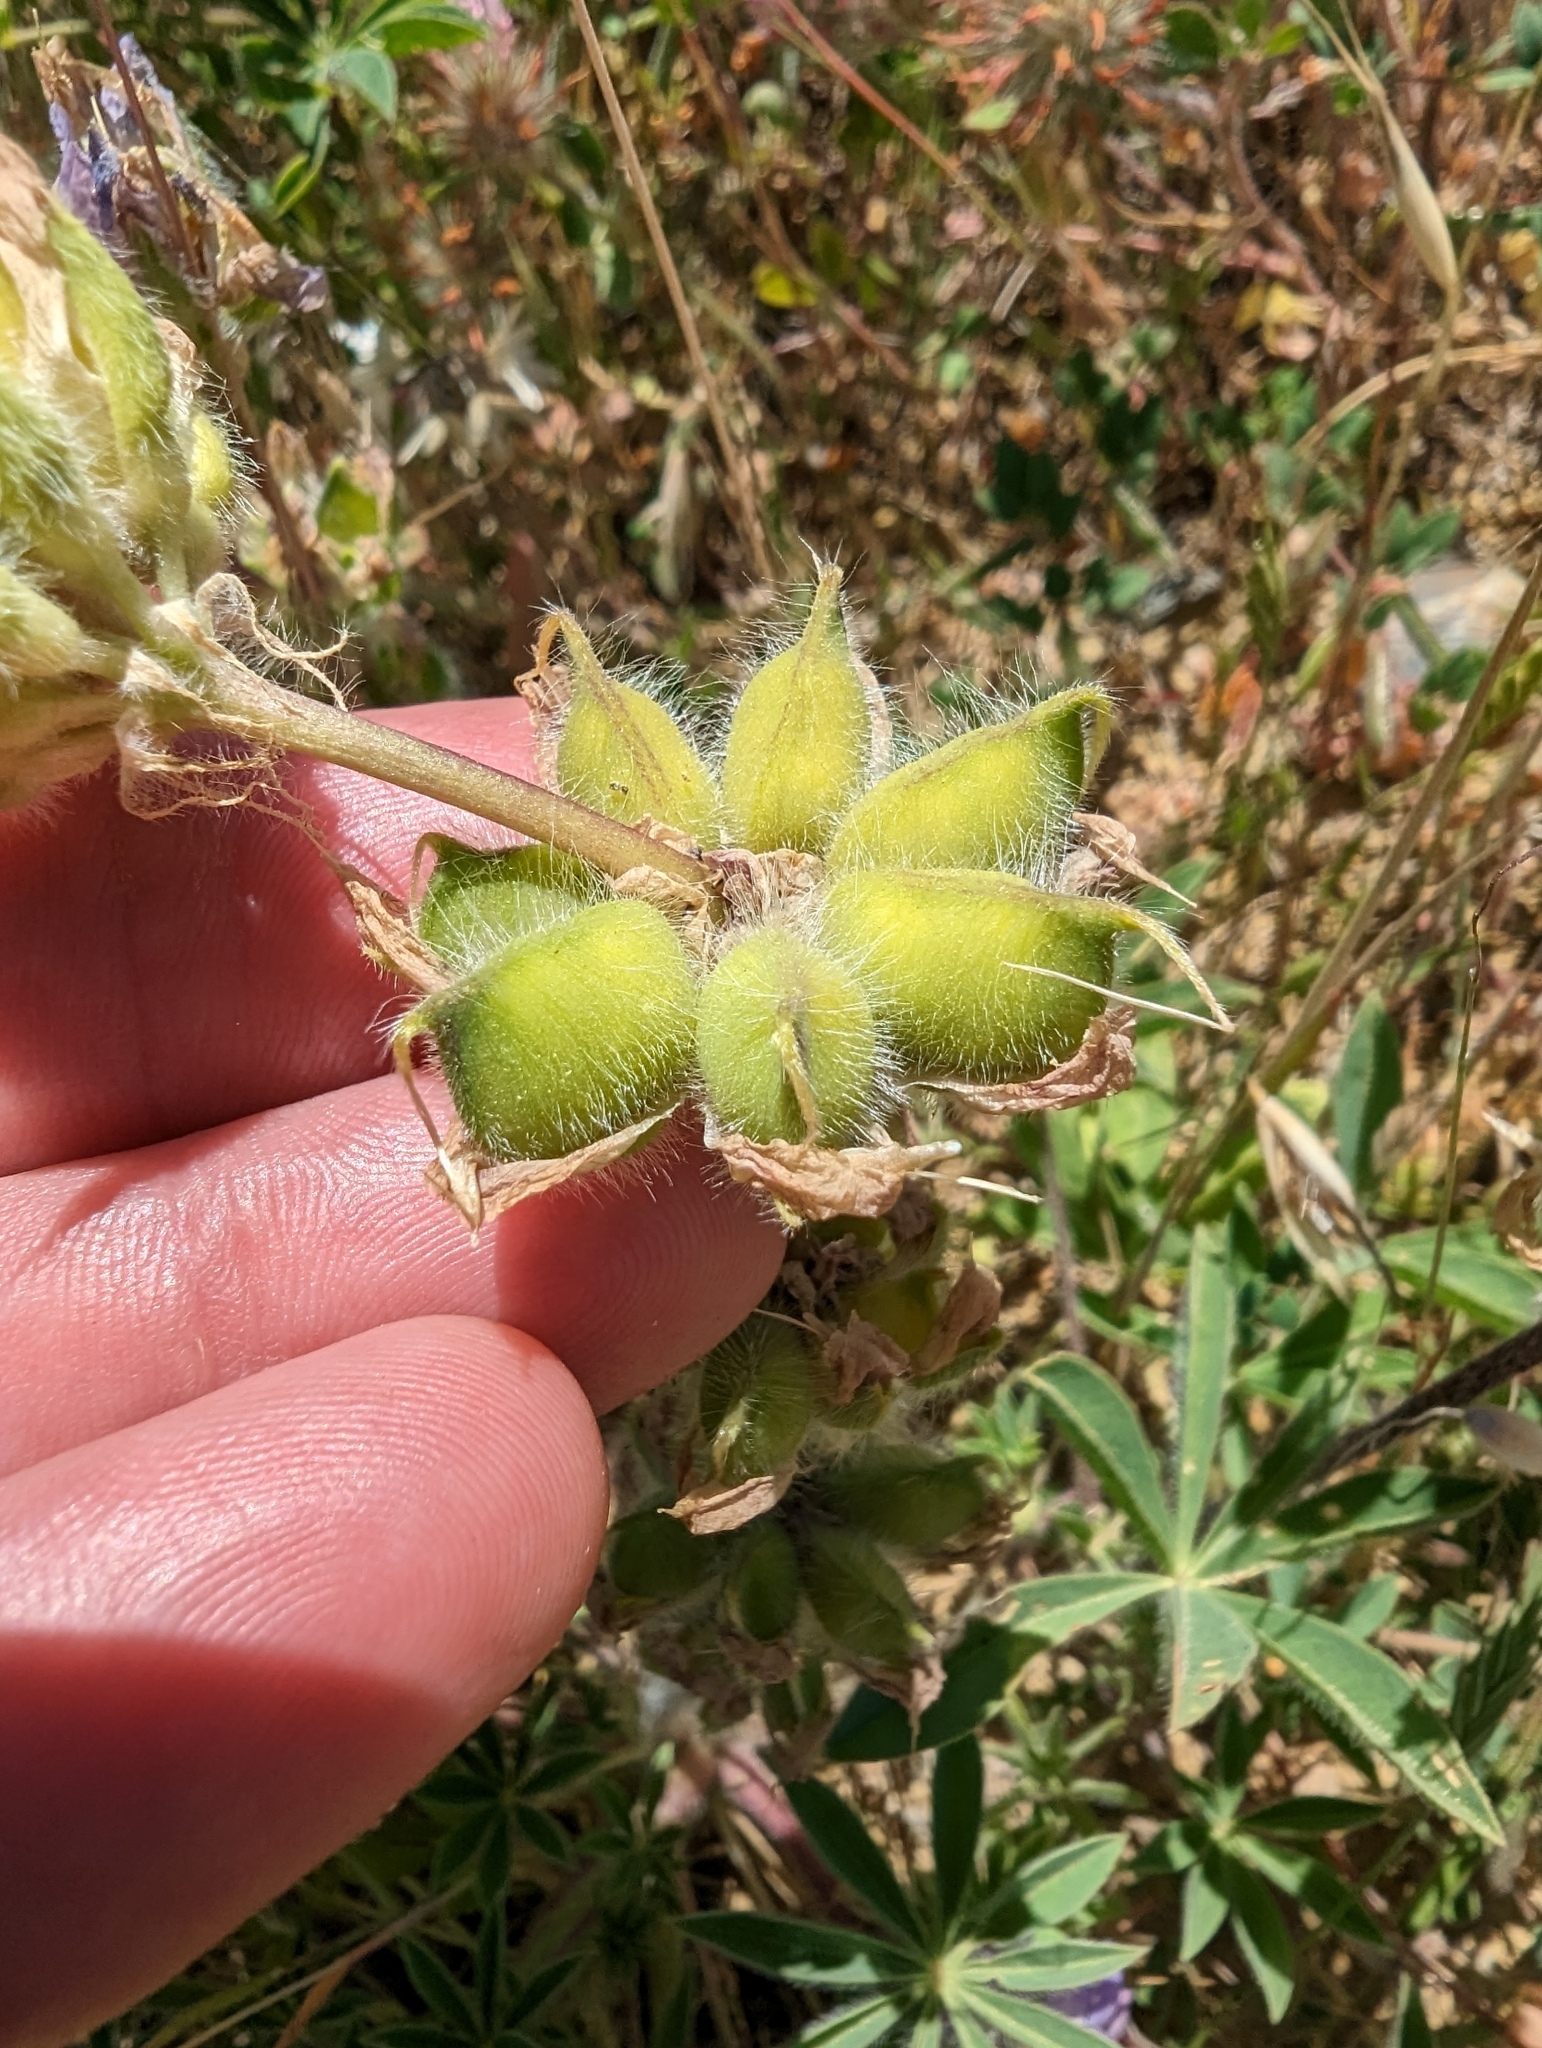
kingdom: Plantae
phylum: Tracheophyta
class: Magnoliopsida
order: Fabales
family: Fabaceae
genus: Lupinus
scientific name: Lupinus microcarpus
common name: Chick lupine
